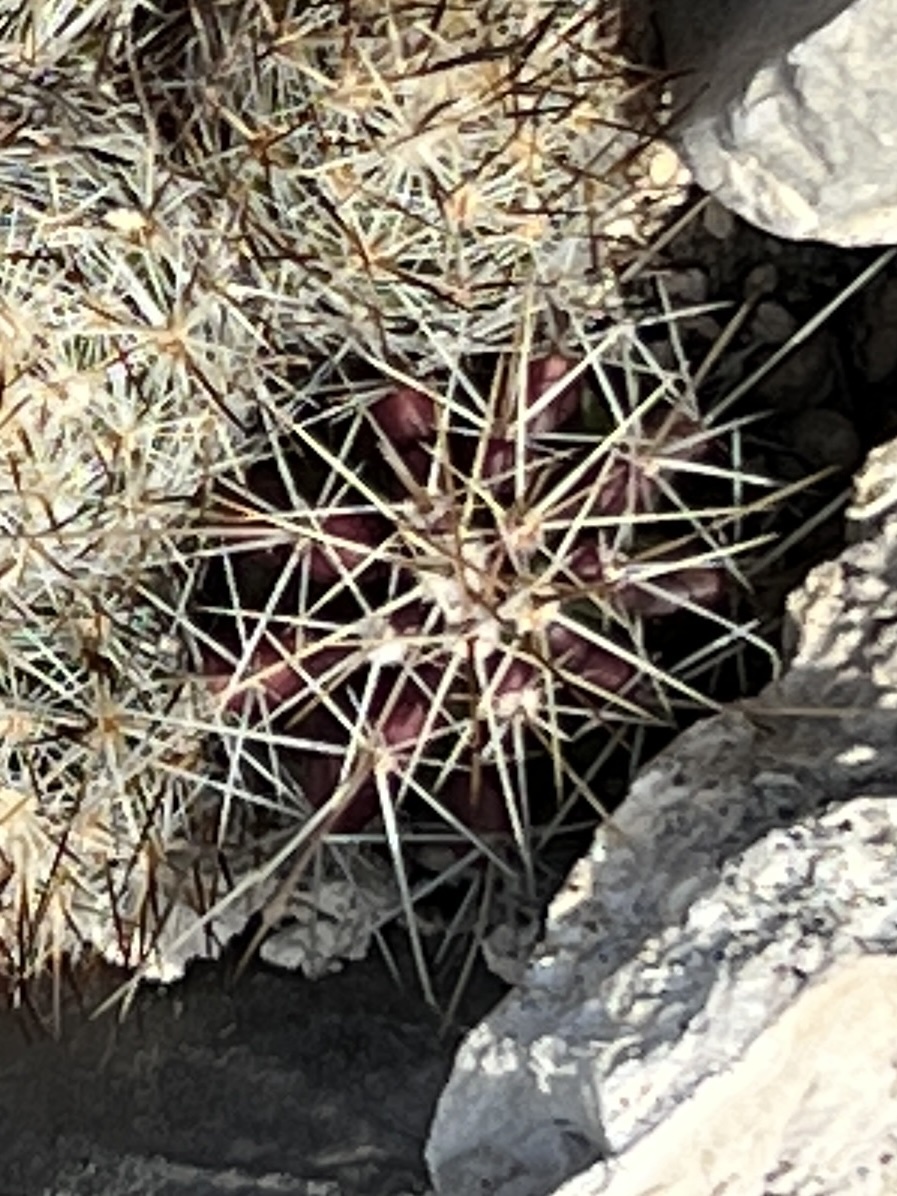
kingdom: Plantae
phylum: Tracheophyta
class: Magnoliopsida
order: Caryophyllales
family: Cactaceae
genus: Echinocereus
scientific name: Echinocereus enneacanthus
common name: Pitaya
